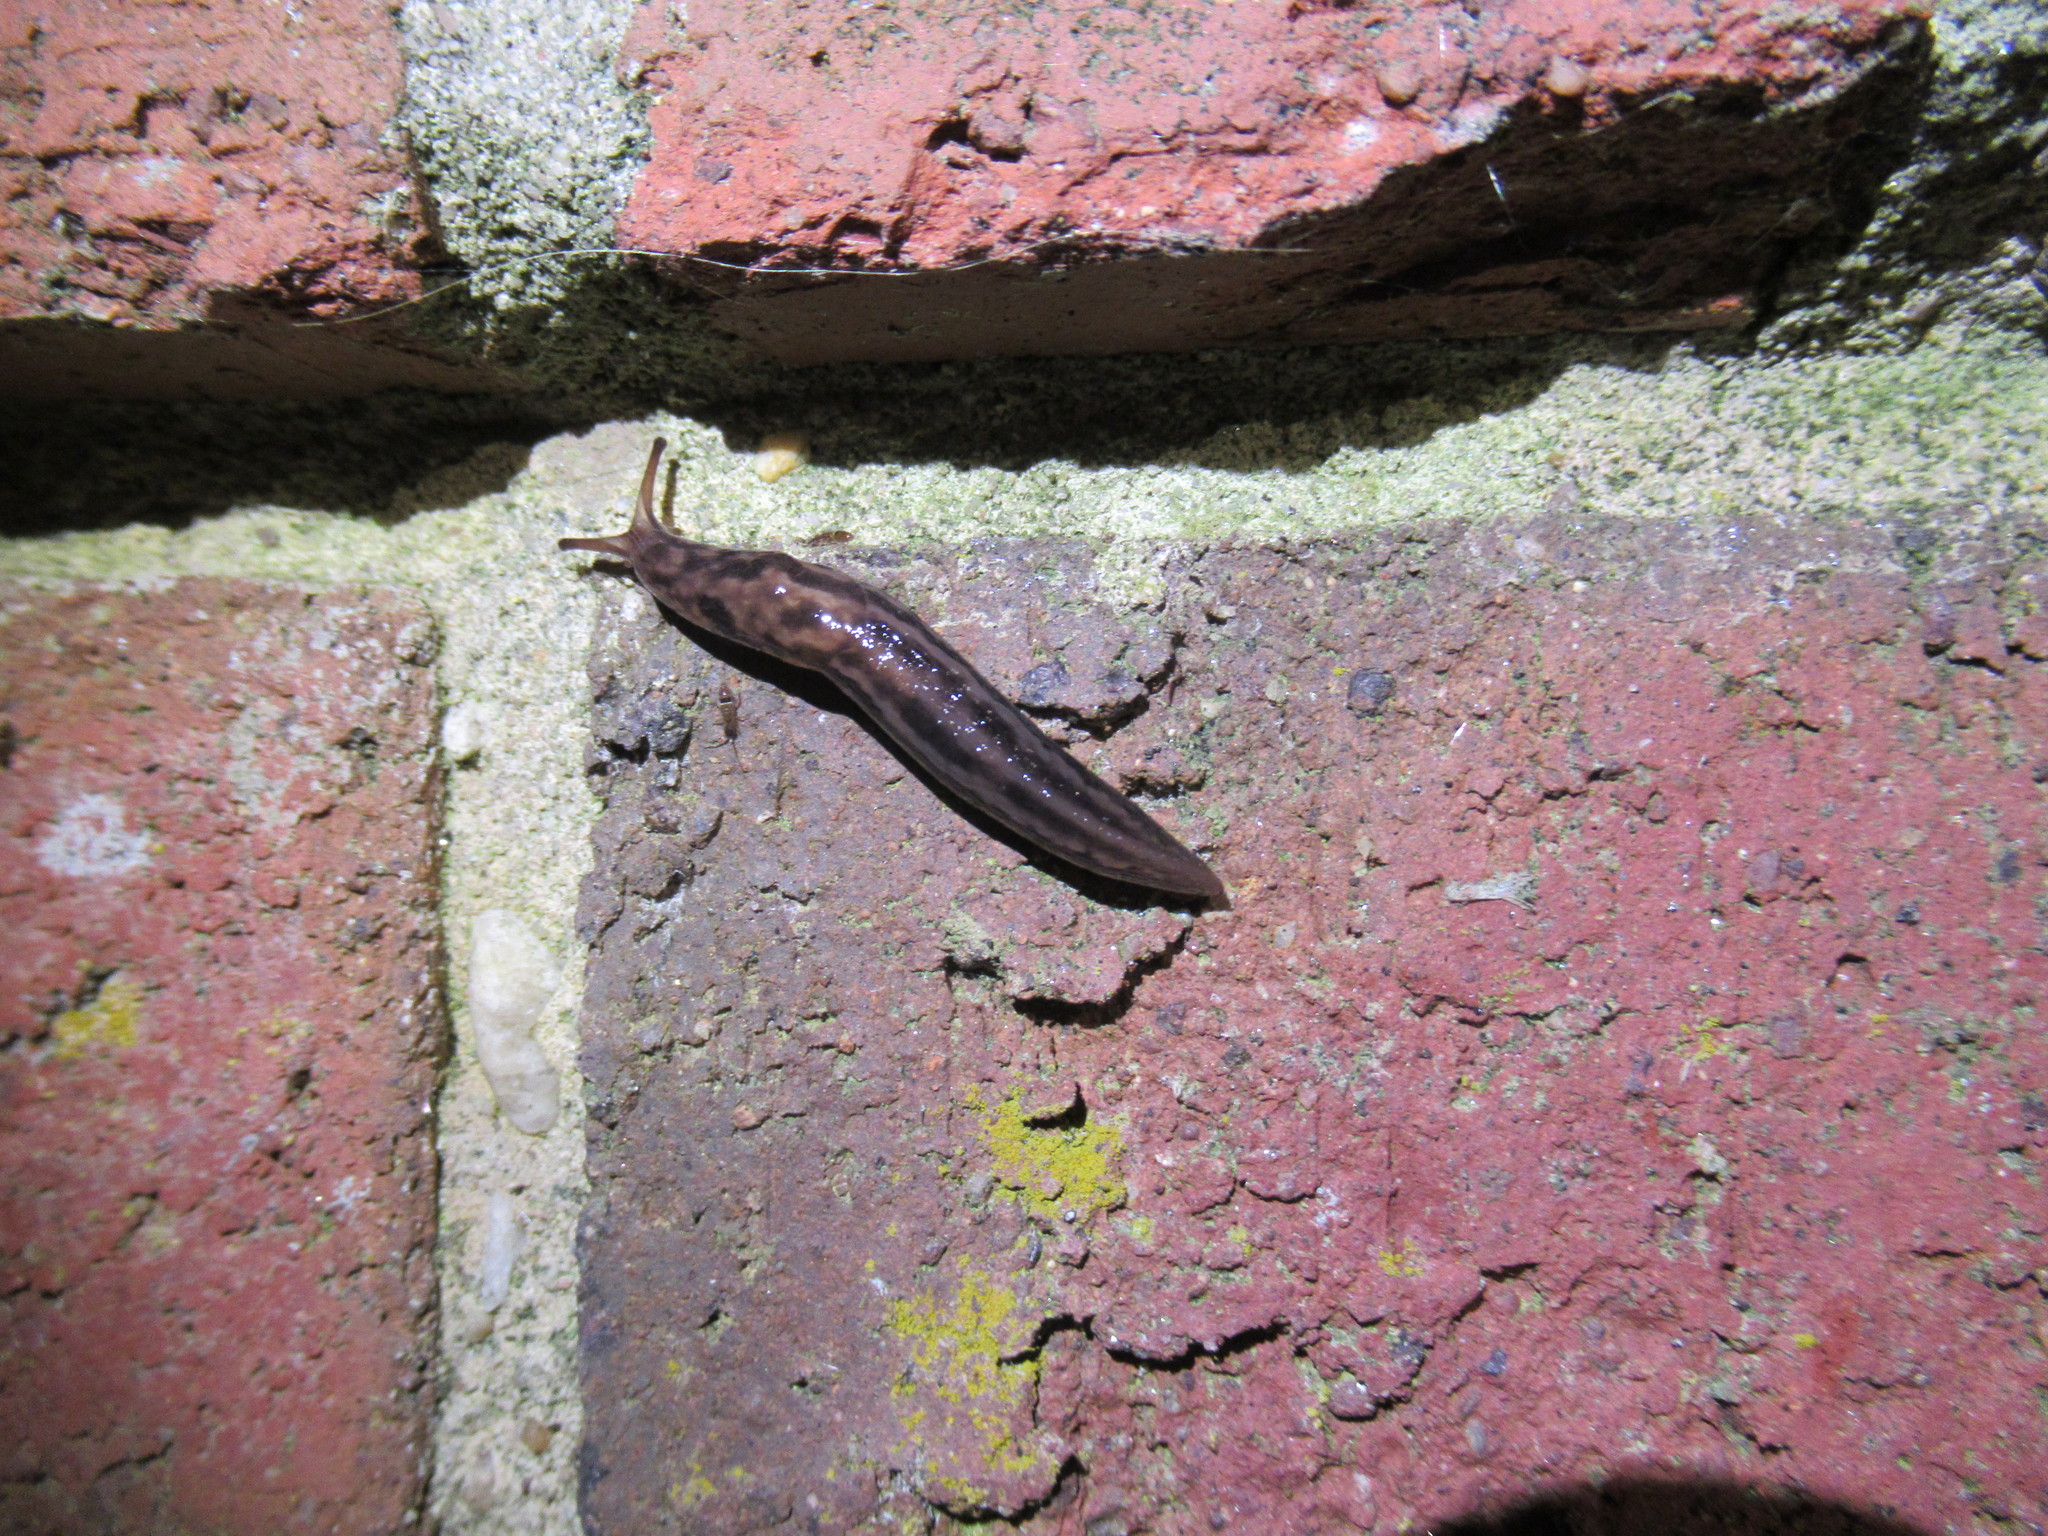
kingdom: Animalia
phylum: Mollusca
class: Gastropoda
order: Stylommatophora
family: Limacidae
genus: Limax
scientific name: Limax maximus
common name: Great grey slug
